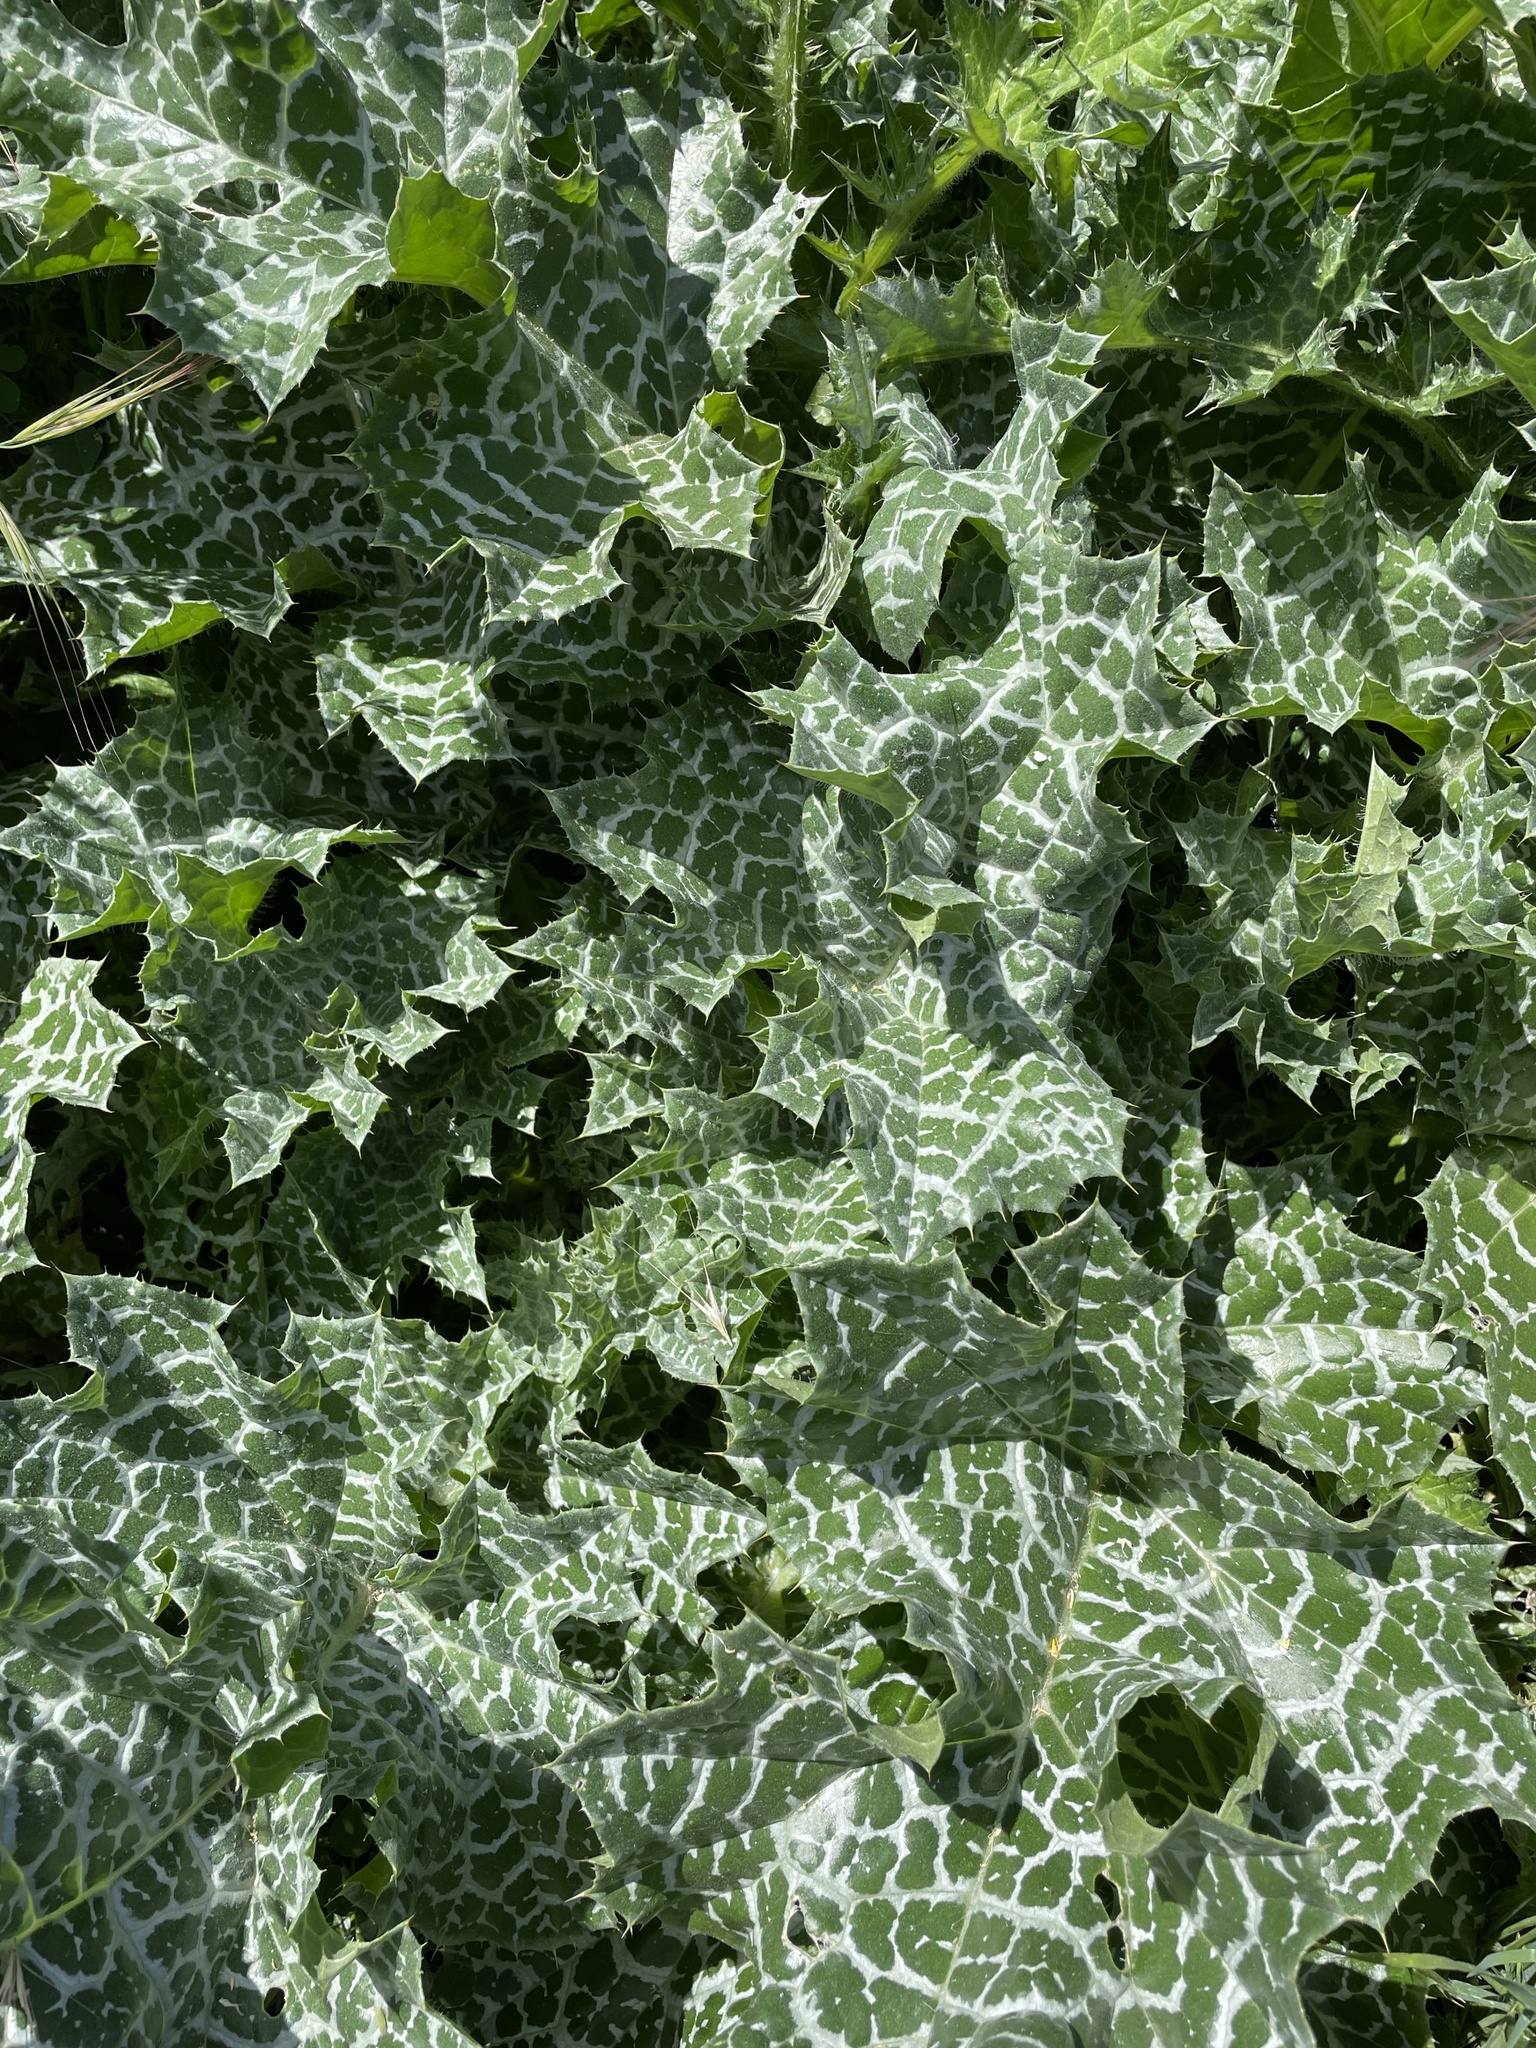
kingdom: Plantae
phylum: Tracheophyta
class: Magnoliopsida
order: Asterales
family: Asteraceae
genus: Silybum
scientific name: Silybum marianum
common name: Milk thistle
